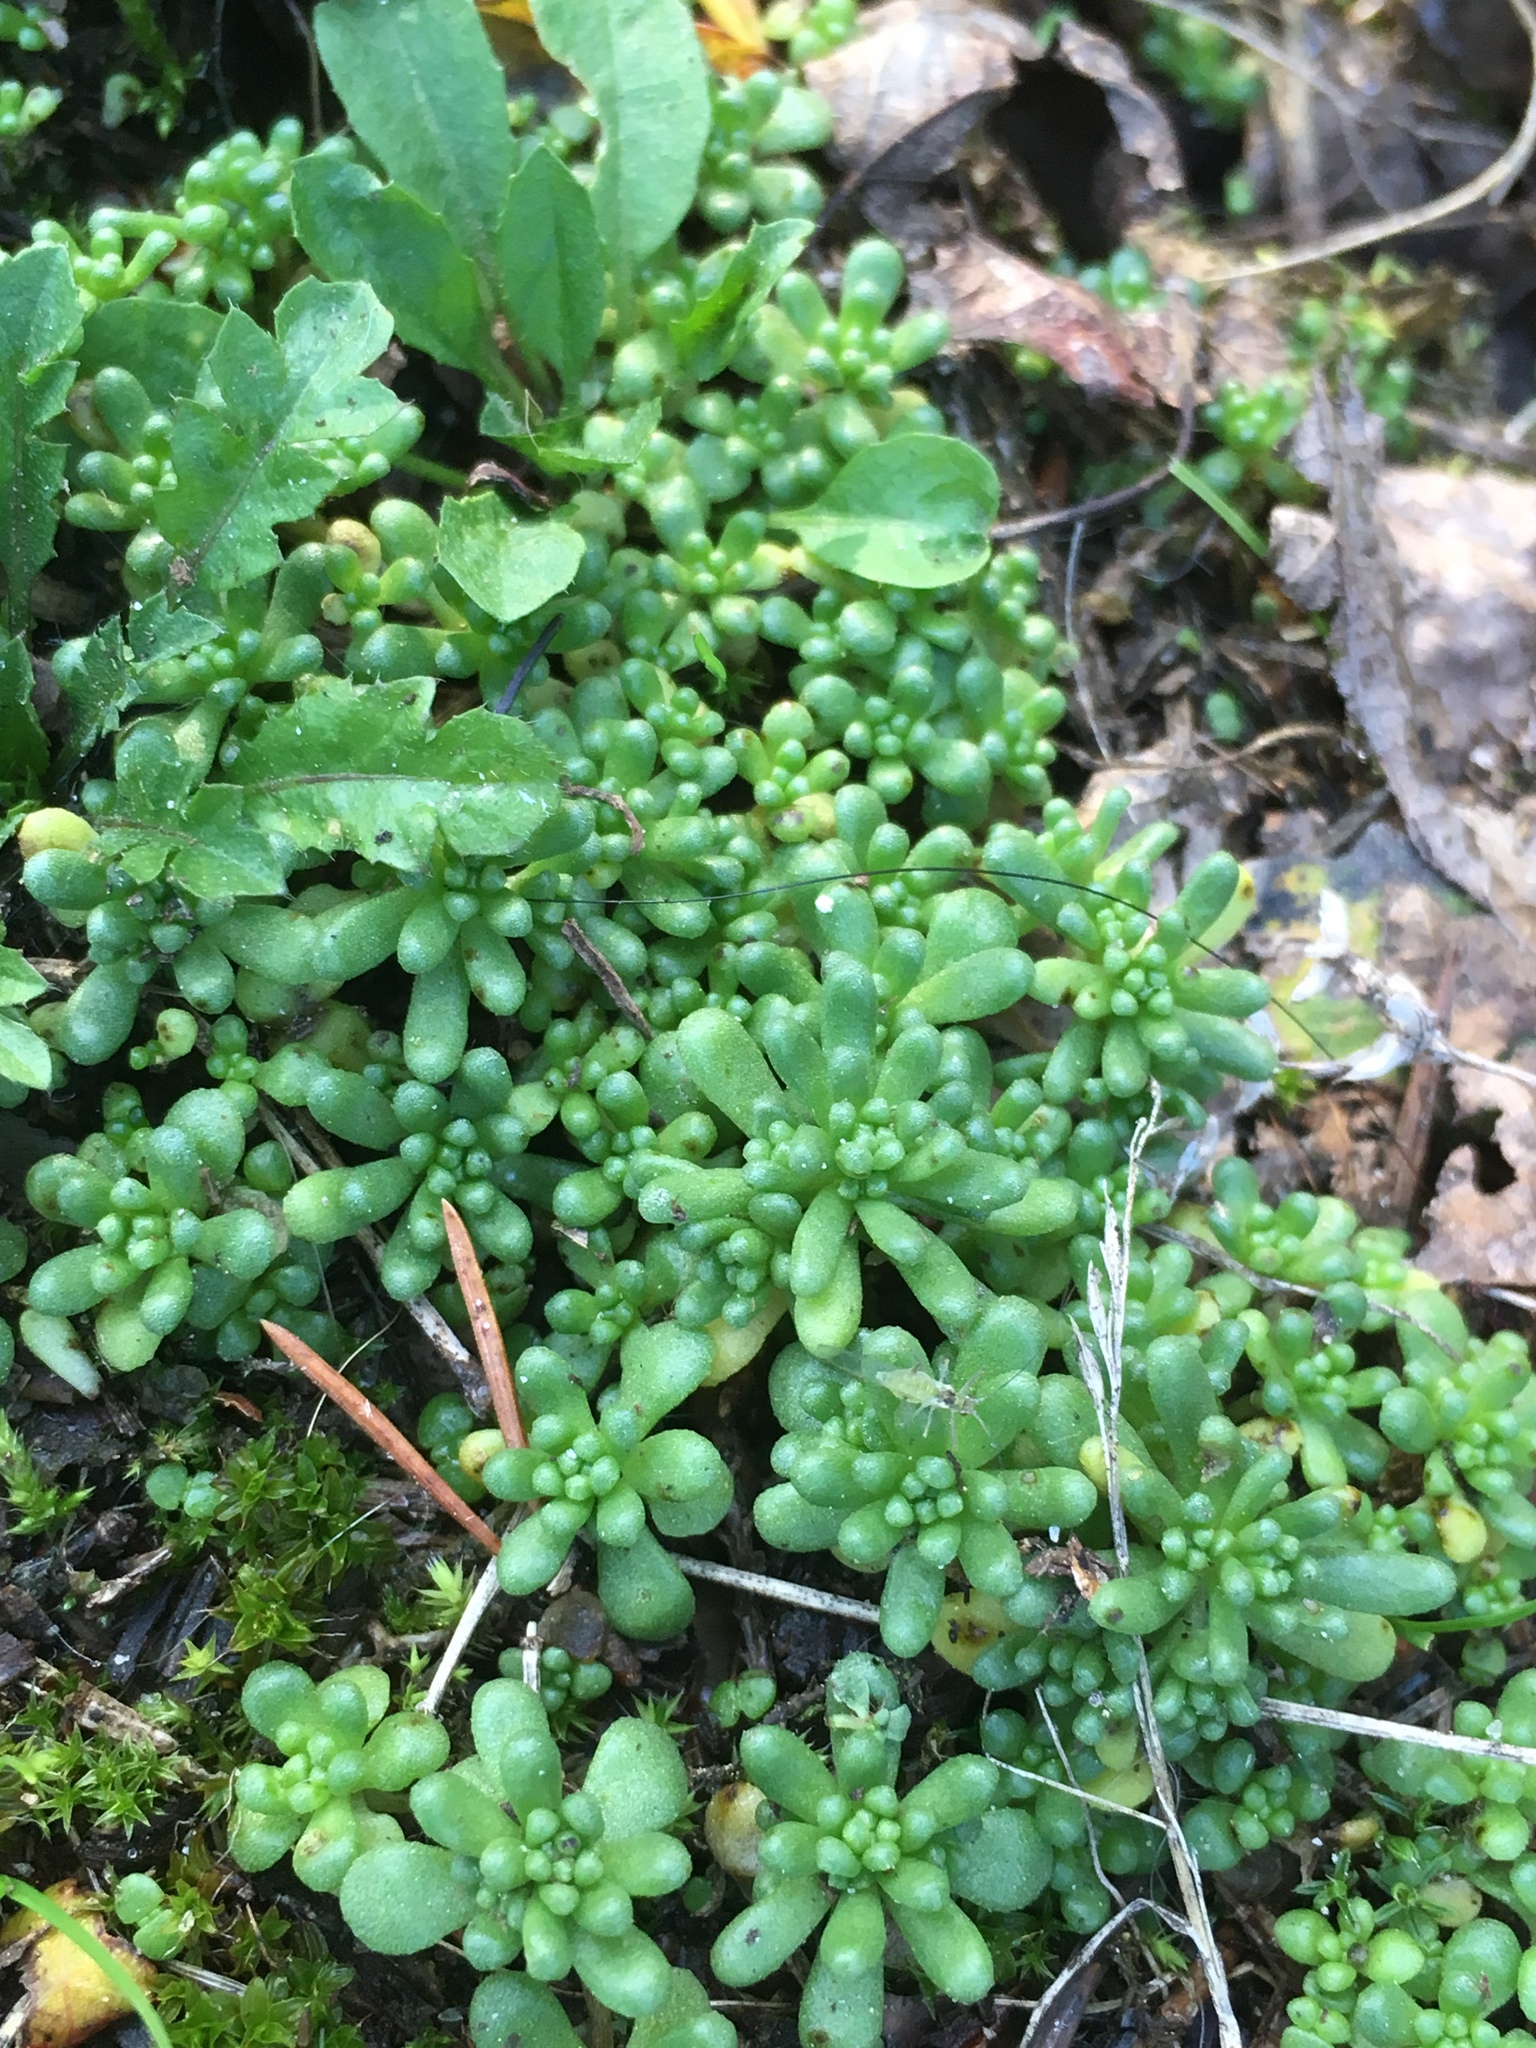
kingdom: Plantae
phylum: Tracheophyta
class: Magnoliopsida
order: Saxifragales
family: Crassulaceae
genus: Sedum
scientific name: Sedum annuum
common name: Annual stonecrop
